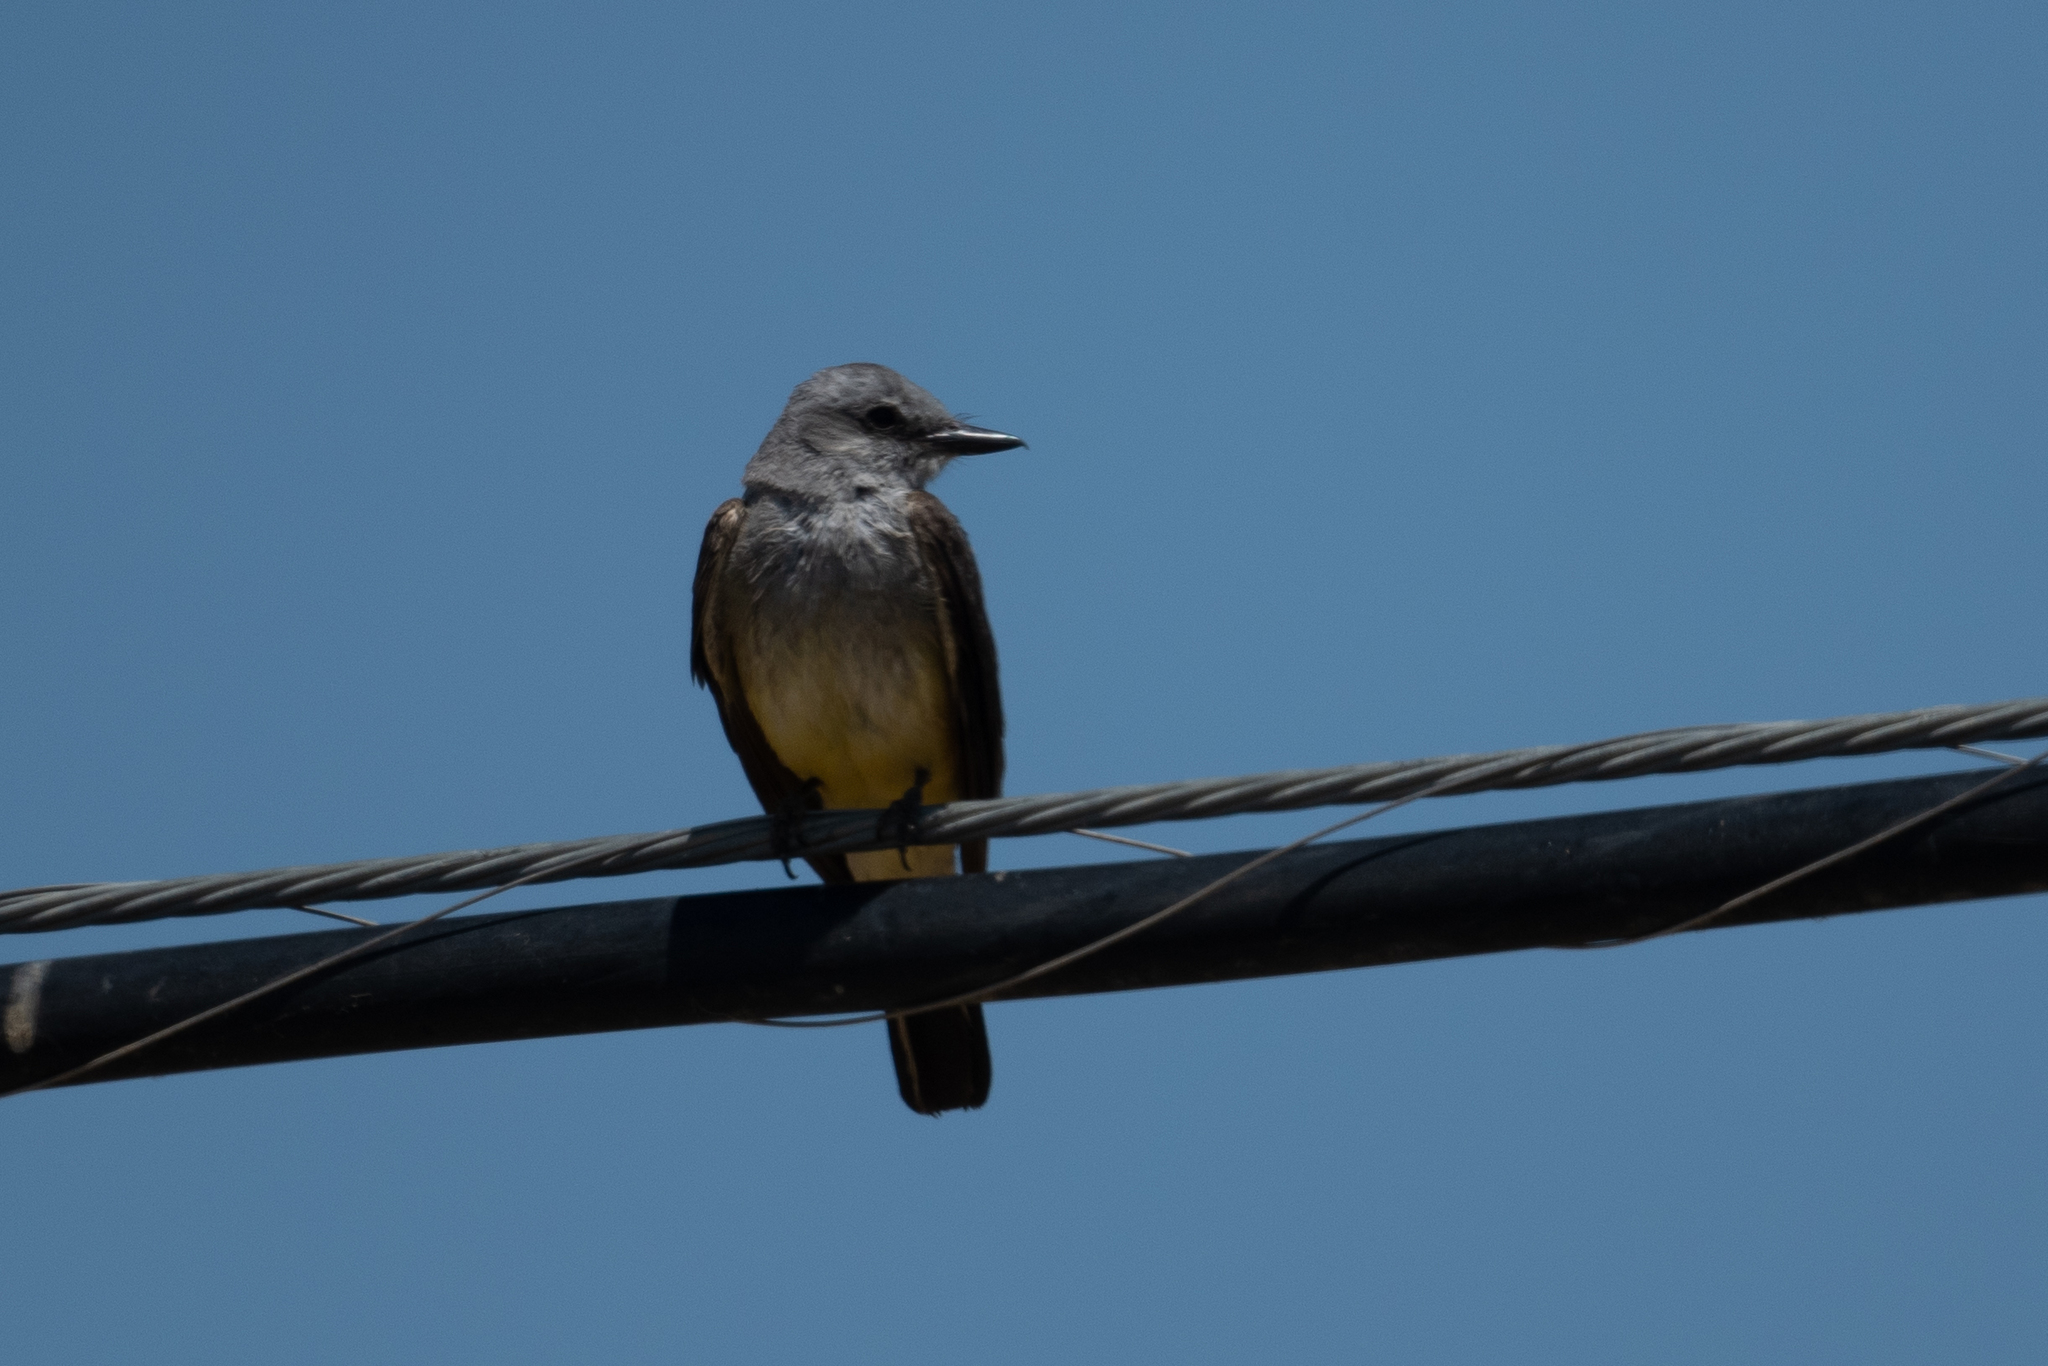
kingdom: Animalia
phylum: Chordata
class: Aves
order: Passeriformes
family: Tyrannidae
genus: Tyrannus
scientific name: Tyrannus verticalis
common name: Western kingbird
